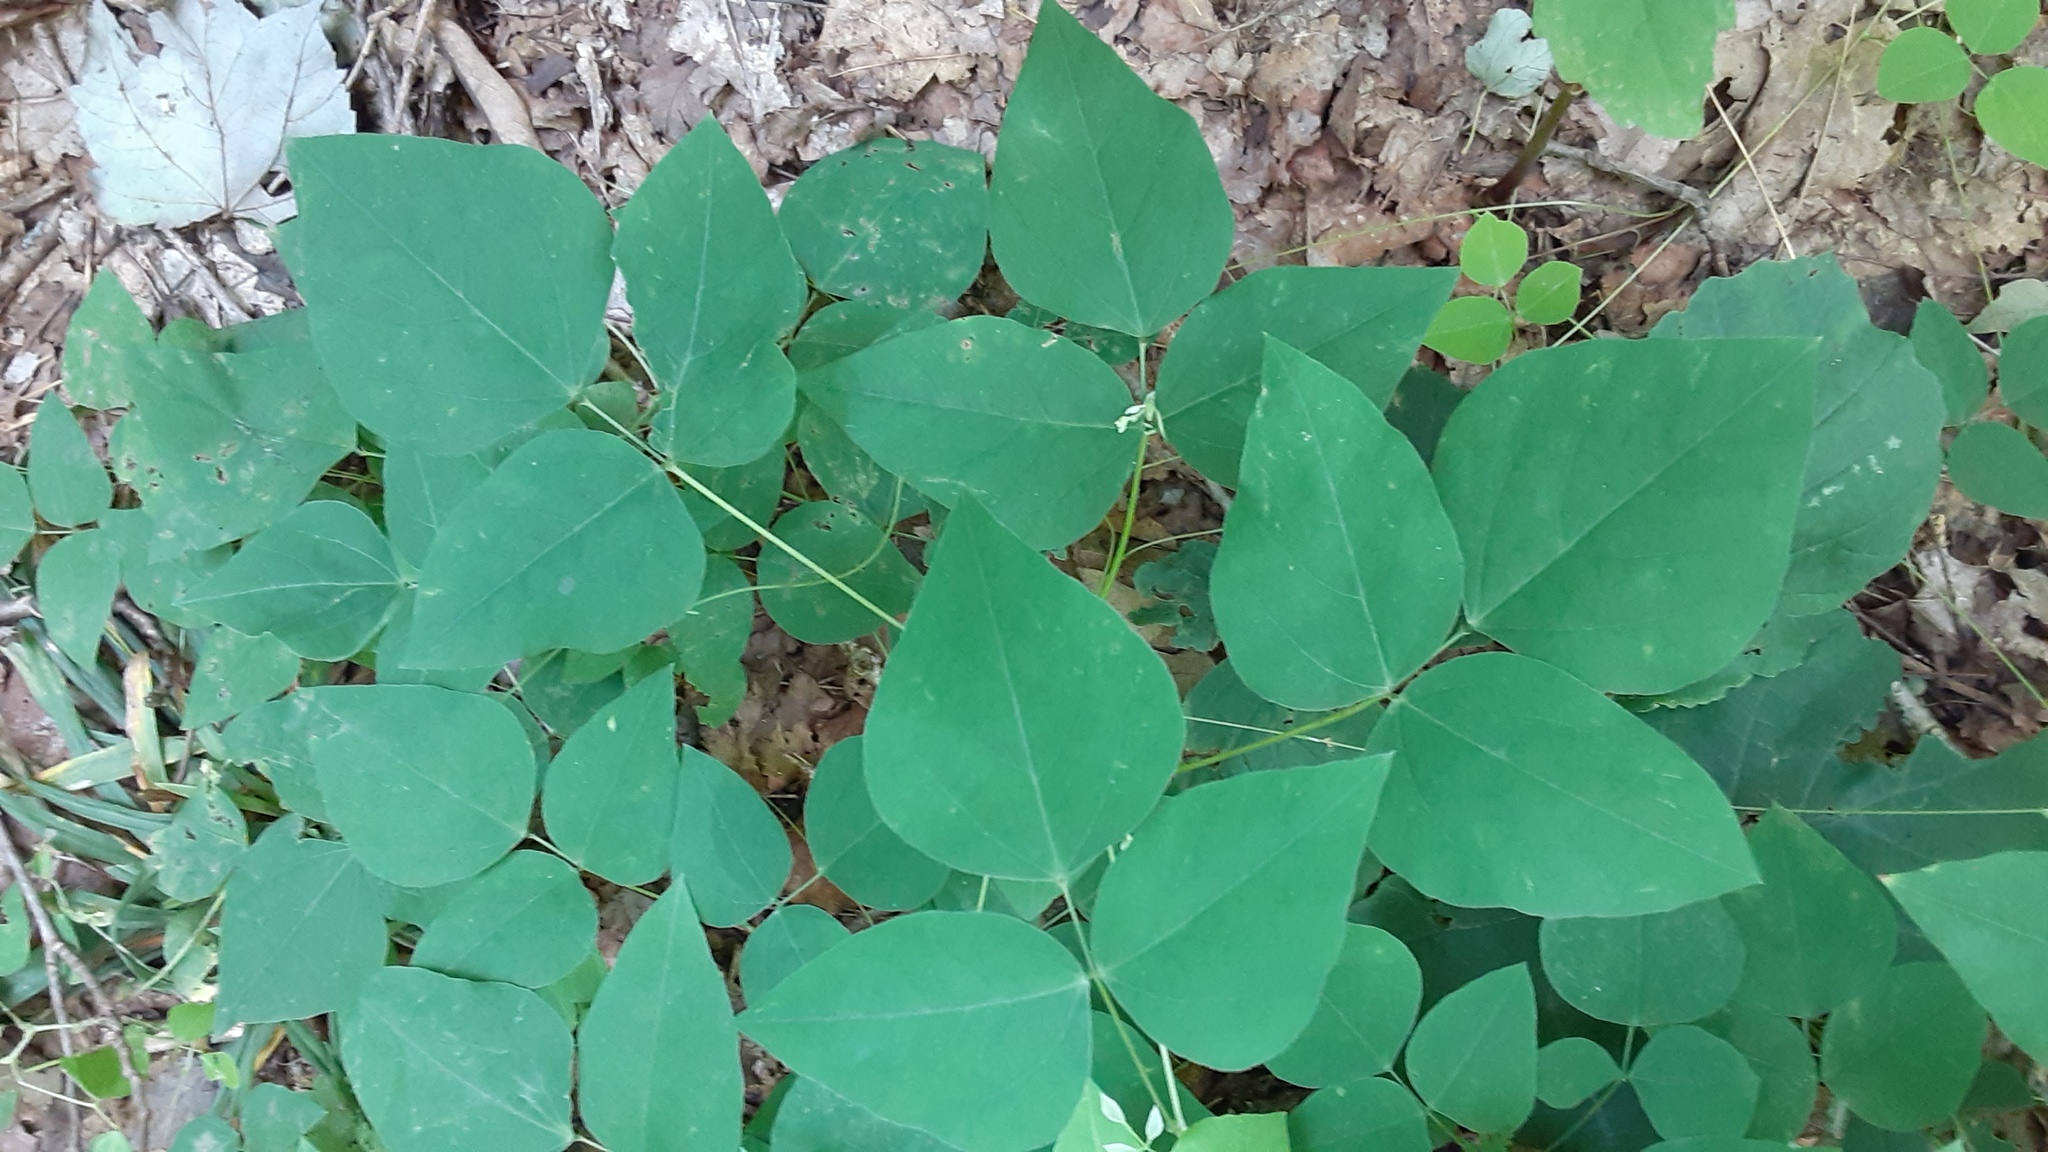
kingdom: Plantae
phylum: Tracheophyta
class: Magnoliopsida
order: Fabales
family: Fabaceae
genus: Amphicarpaea
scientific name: Amphicarpaea bracteata
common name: American hog peanut
